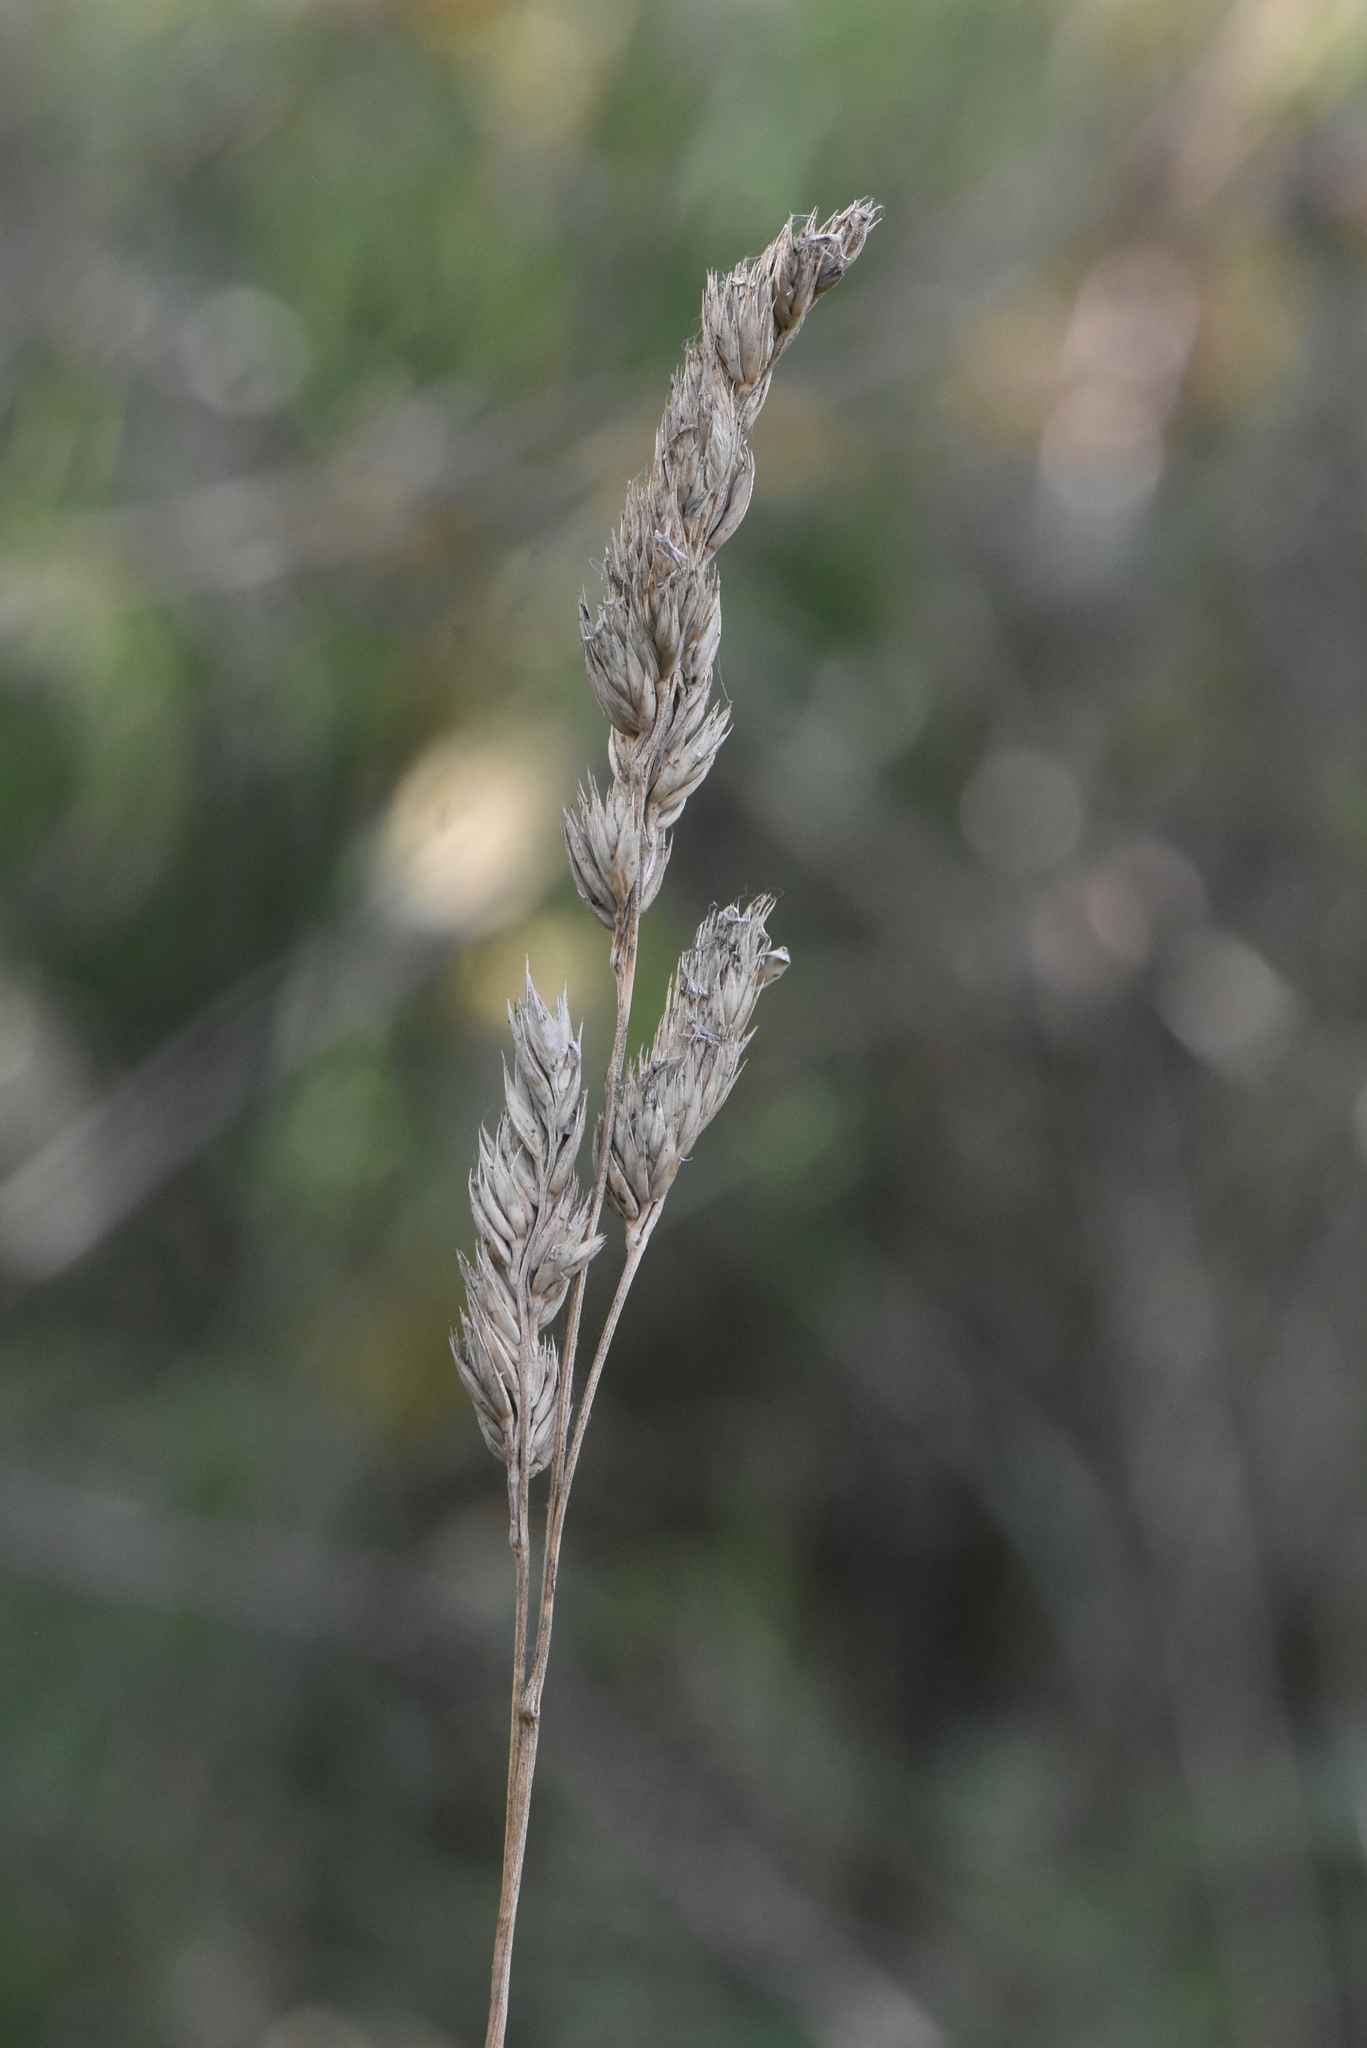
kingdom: Plantae
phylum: Tracheophyta
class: Liliopsida
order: Poales
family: Poaceae
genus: Dactylis
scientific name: Dactylis glomerata
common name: Orchardgrass
